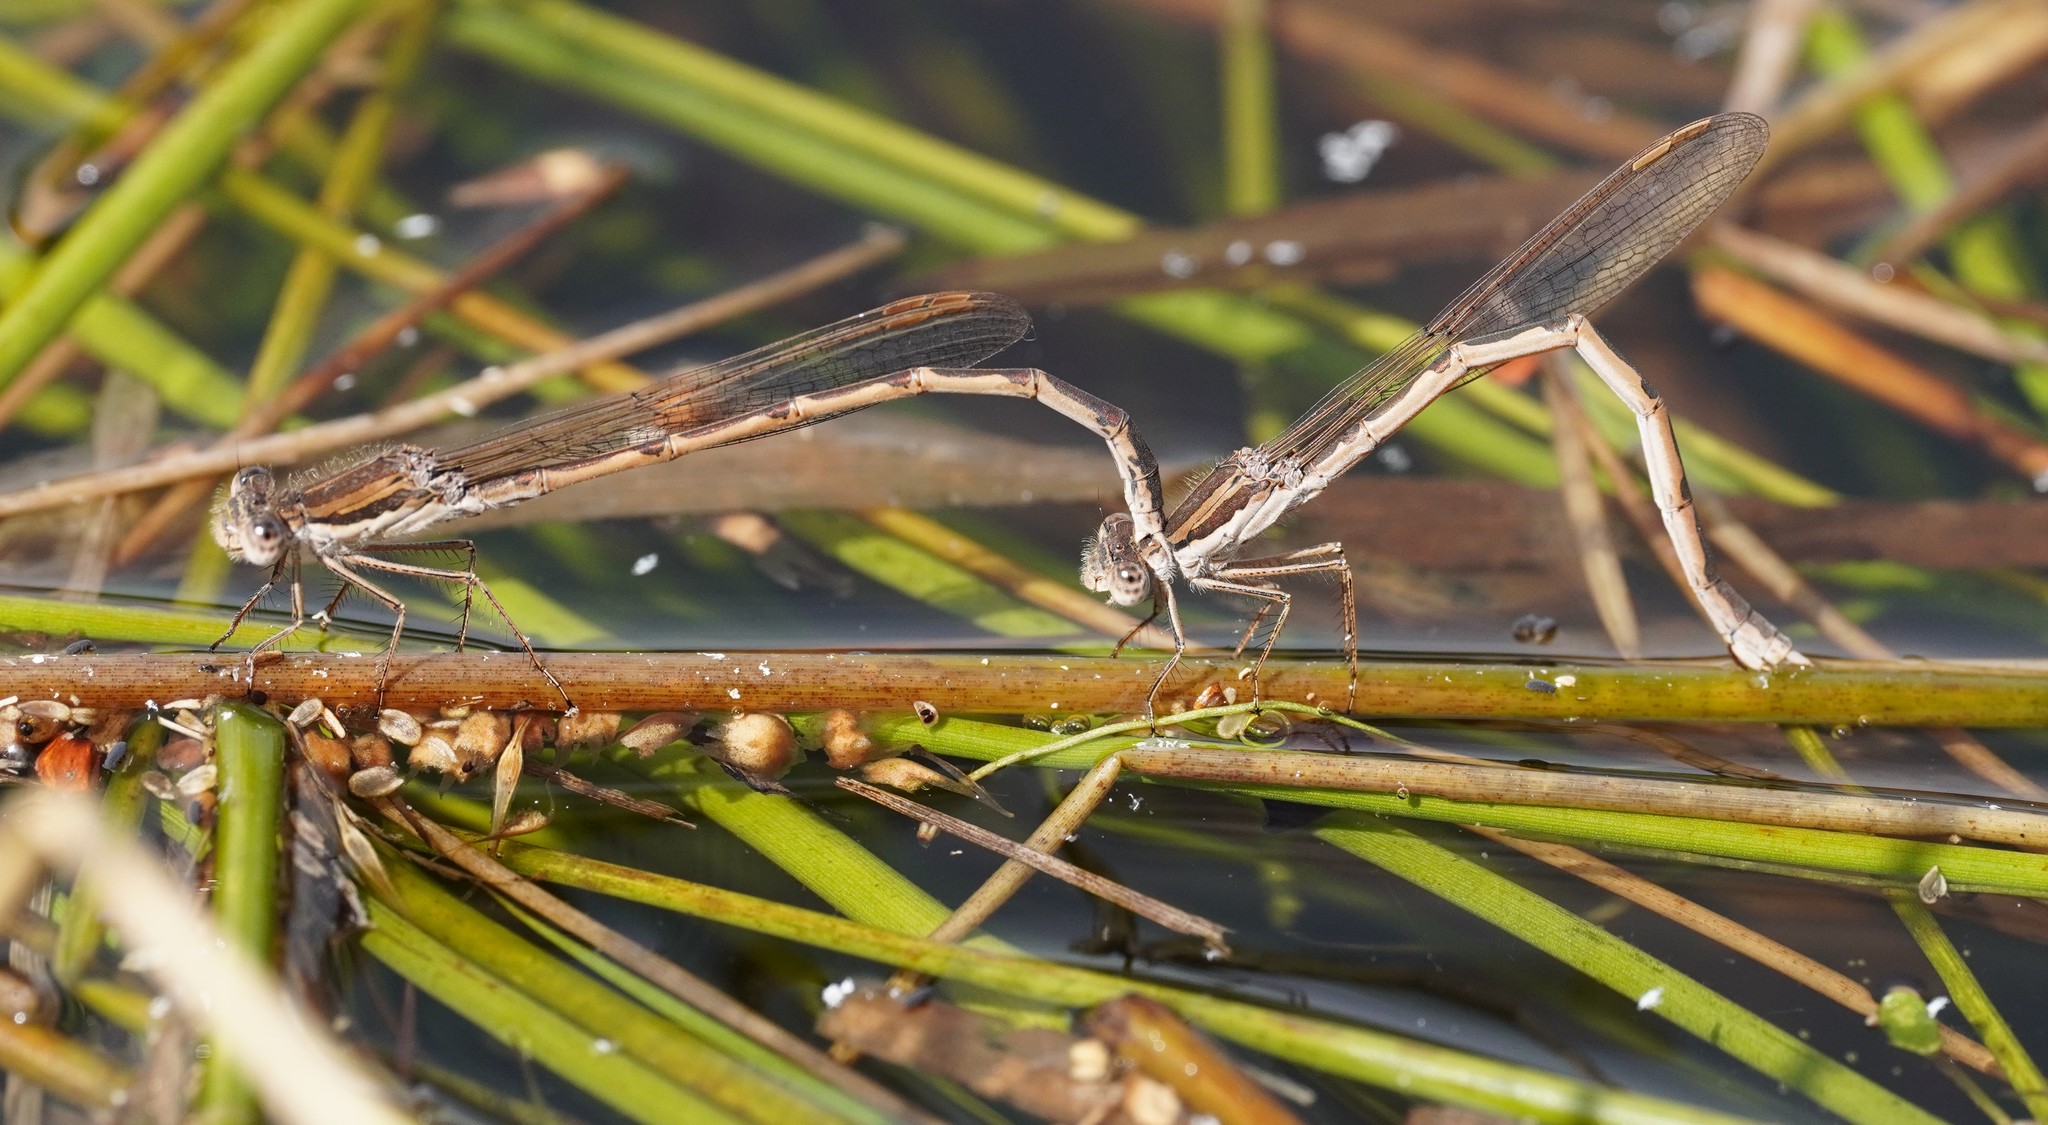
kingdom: Animalia
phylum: Arthropoda
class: Insecta
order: Odonata
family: Lestidae
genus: Sympecma
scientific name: Sympecma fusca
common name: Common winter damsel
